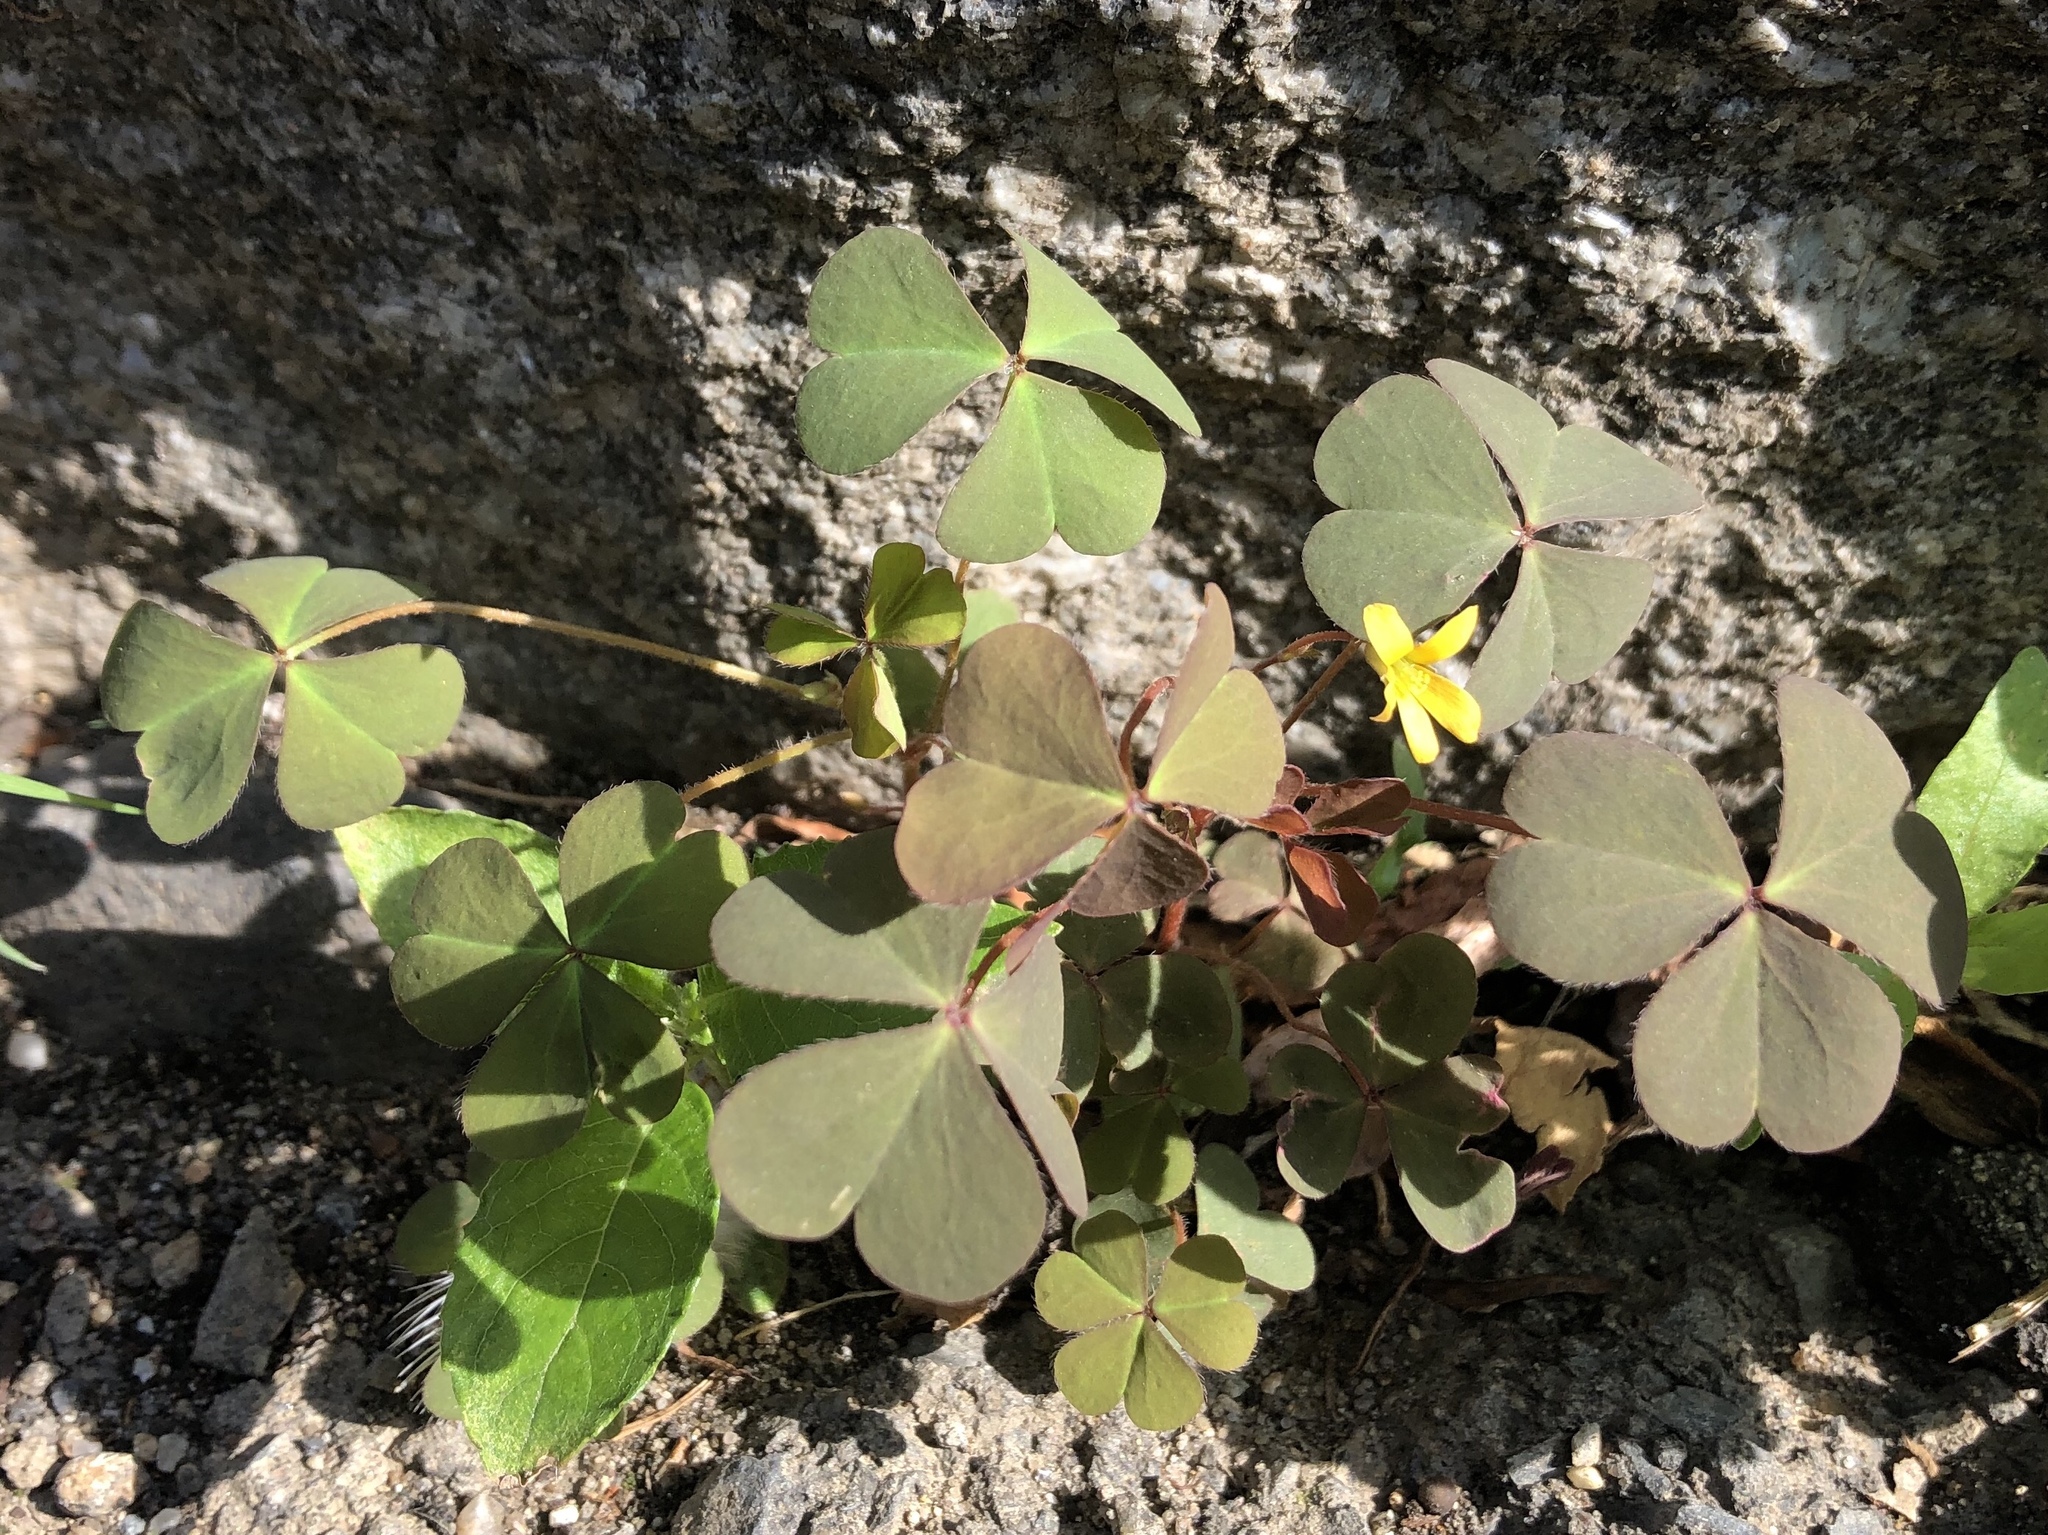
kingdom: Plantae
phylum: Tracheophyta
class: Magnoliopsida
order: Oxalidales
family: Oxalidaceae
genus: Oxalis
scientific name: Oxalis corniculata
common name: Procumbent yellow-sorrel
